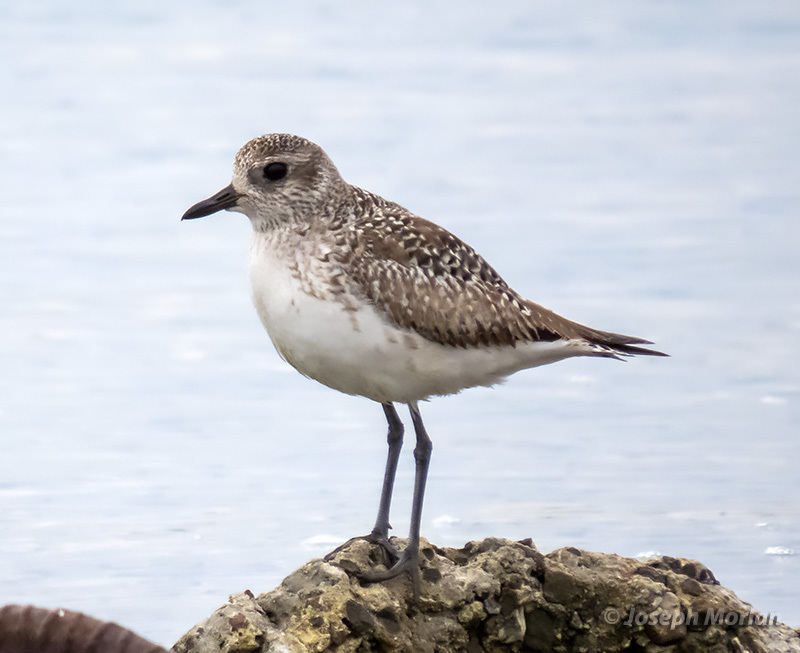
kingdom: Animalia
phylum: Chordata
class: Aves
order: Charadriiformes
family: Charadriidae
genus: Pluvialis
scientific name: Pluvialis squatarola
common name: Grey plover
